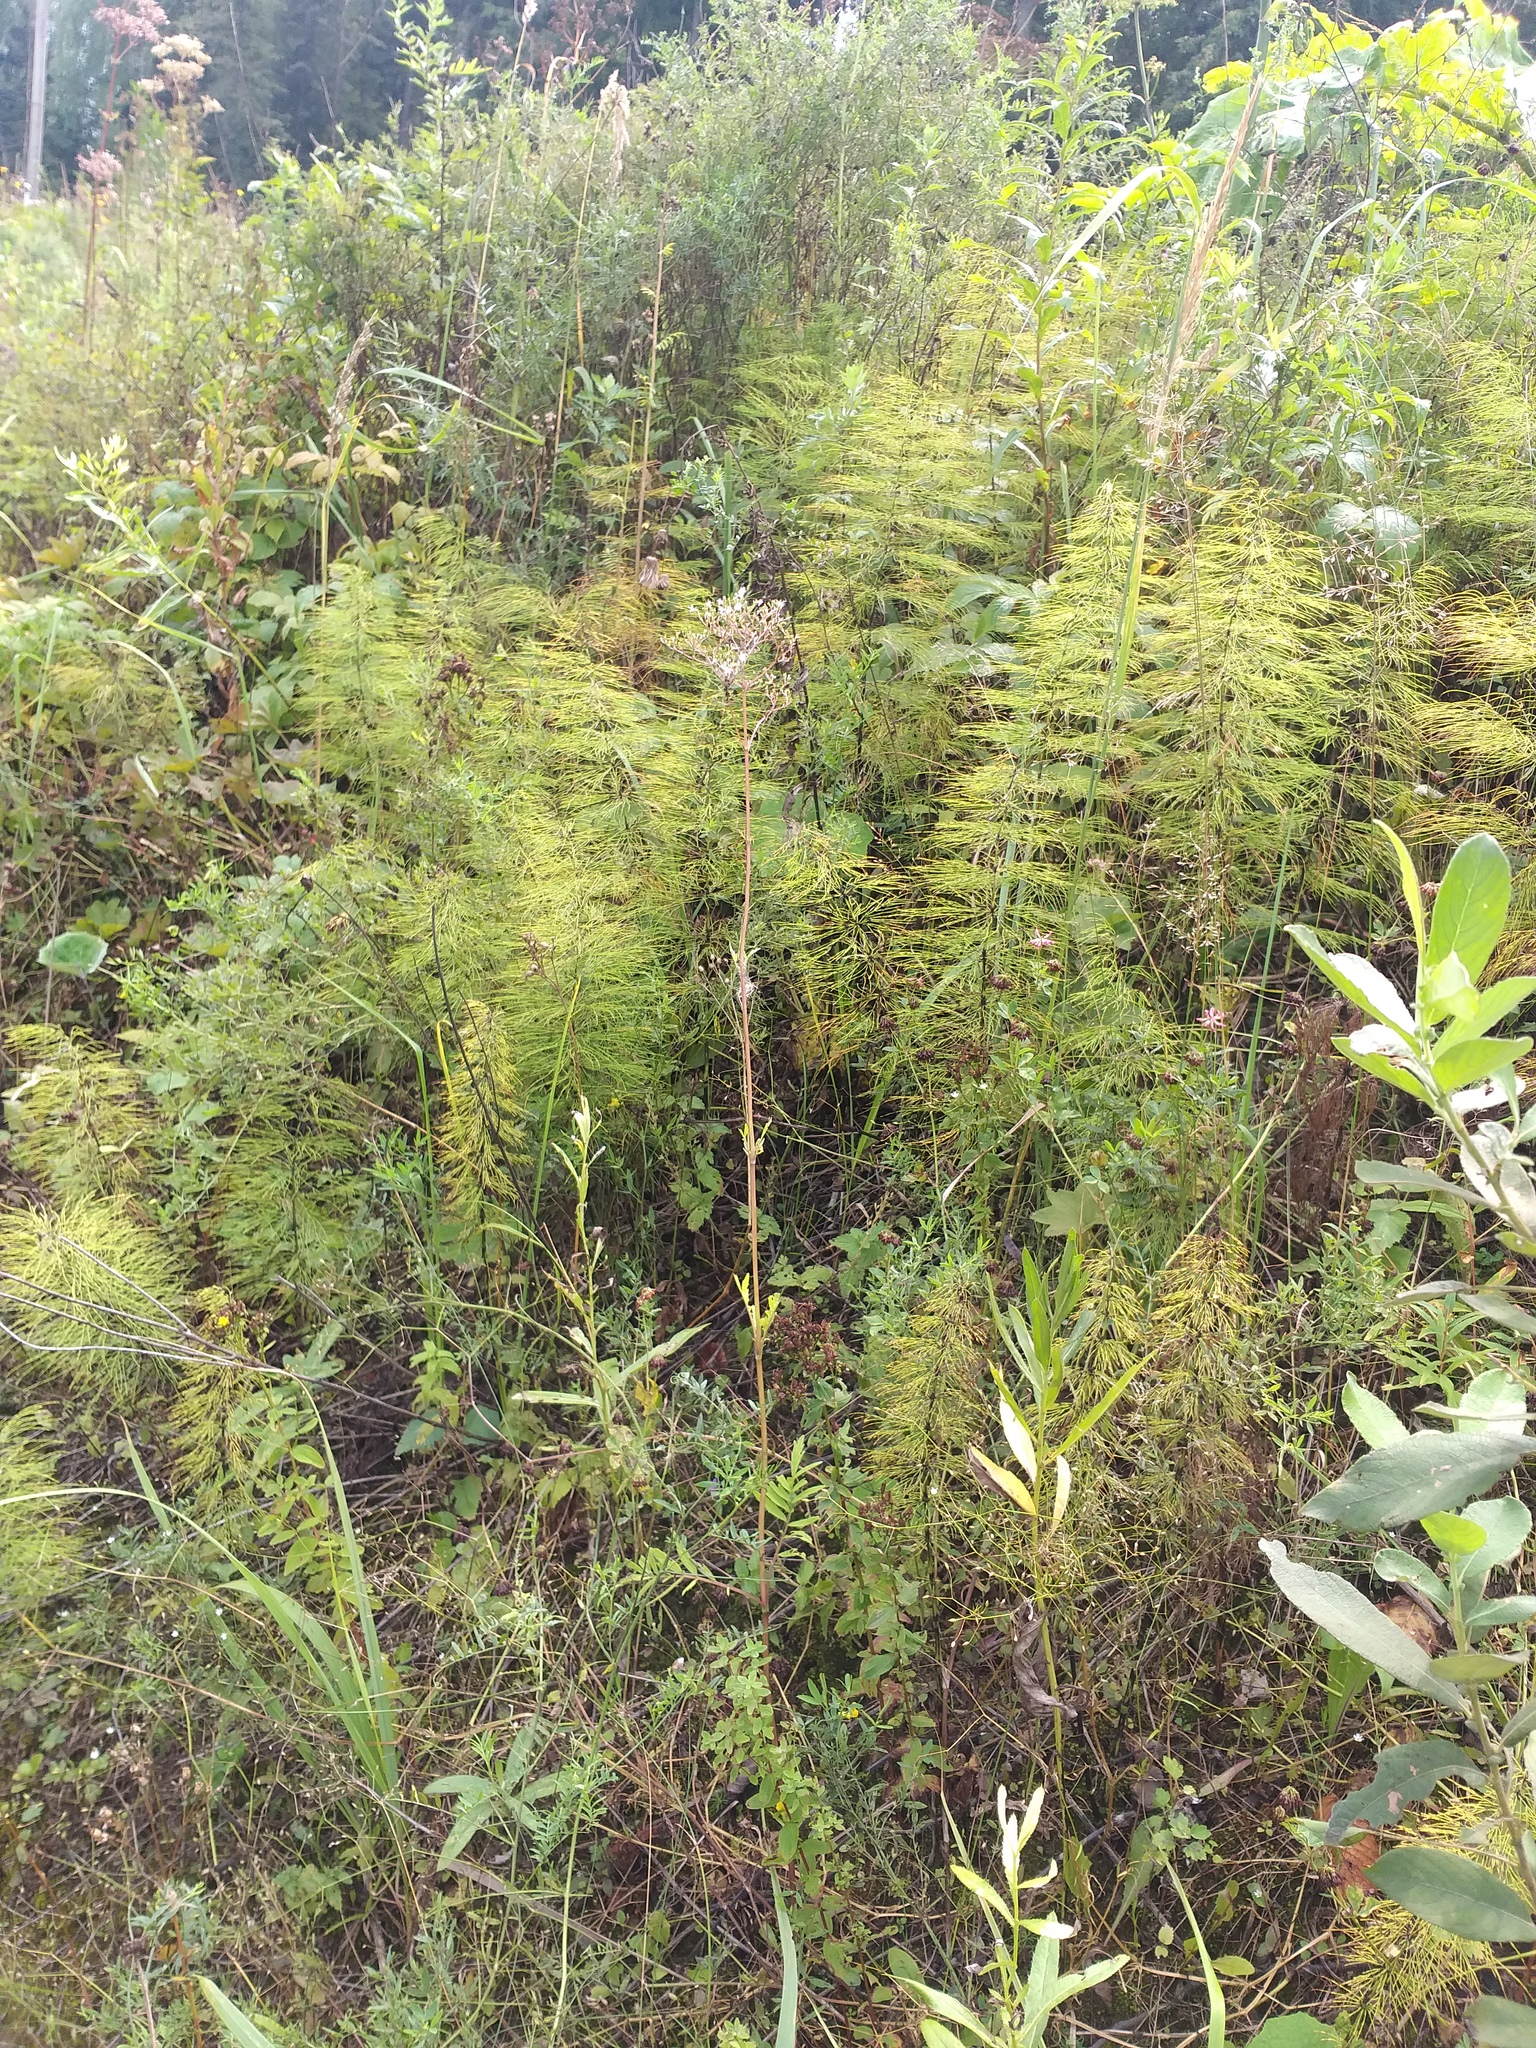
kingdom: Plantae
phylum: Tracheophyta
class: Magnoliopsida
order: Dipsacales
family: Caprifoliaceae
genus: Valeriana
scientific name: Valeriana officinalis
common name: Common valerian
